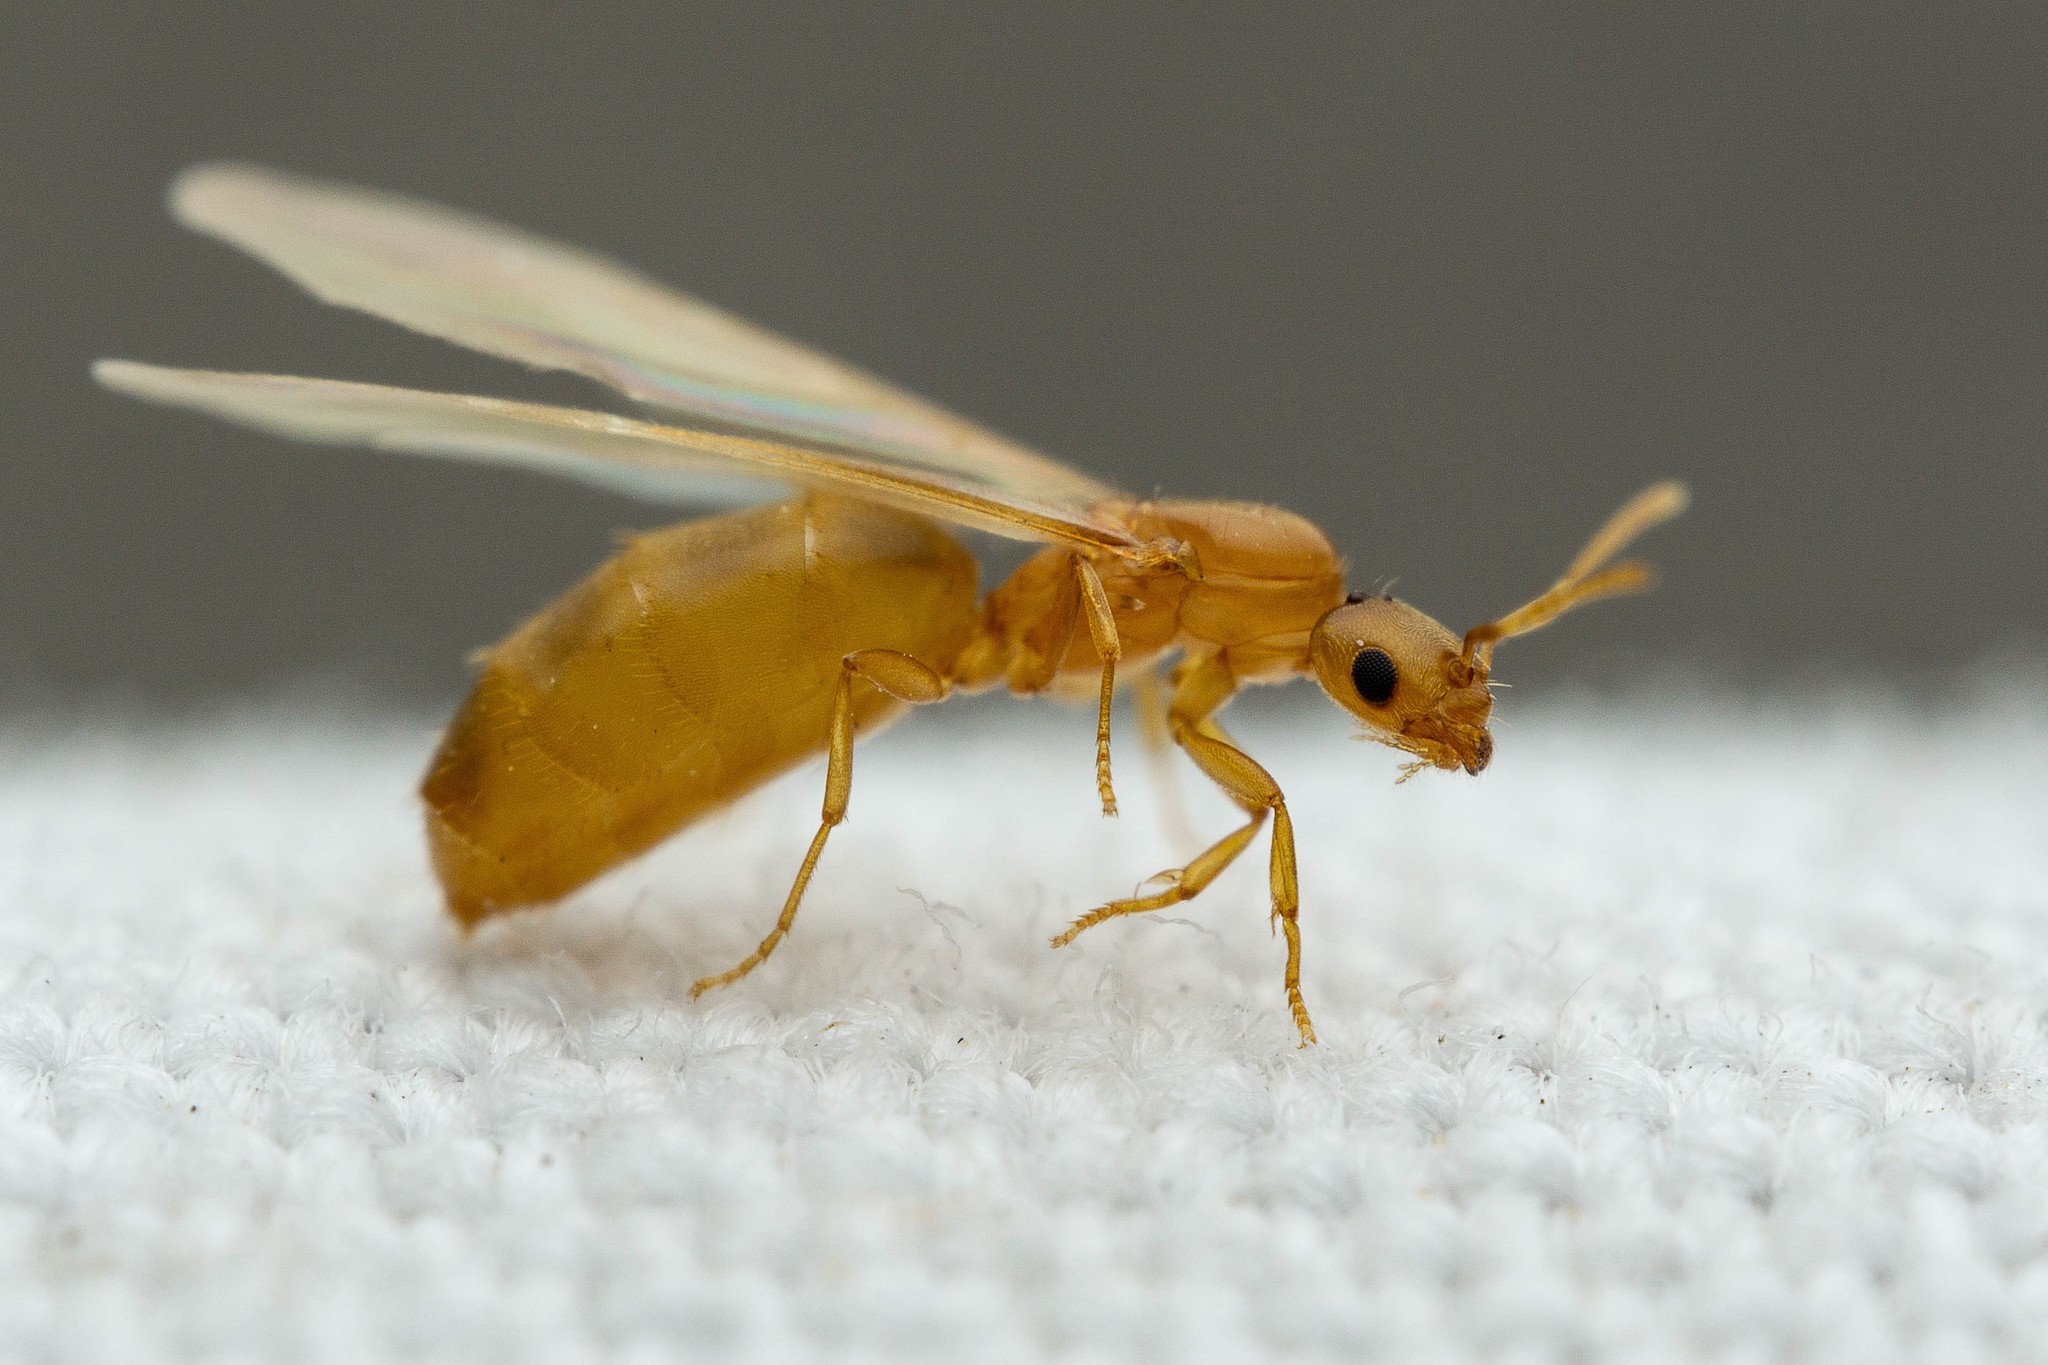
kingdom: Animalia
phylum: Arthropoda
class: Insecta
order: Hymenoptera
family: Formicidae
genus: Brachymyrmex
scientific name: Brachymyrmex depilis
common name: Hairless rover ant
